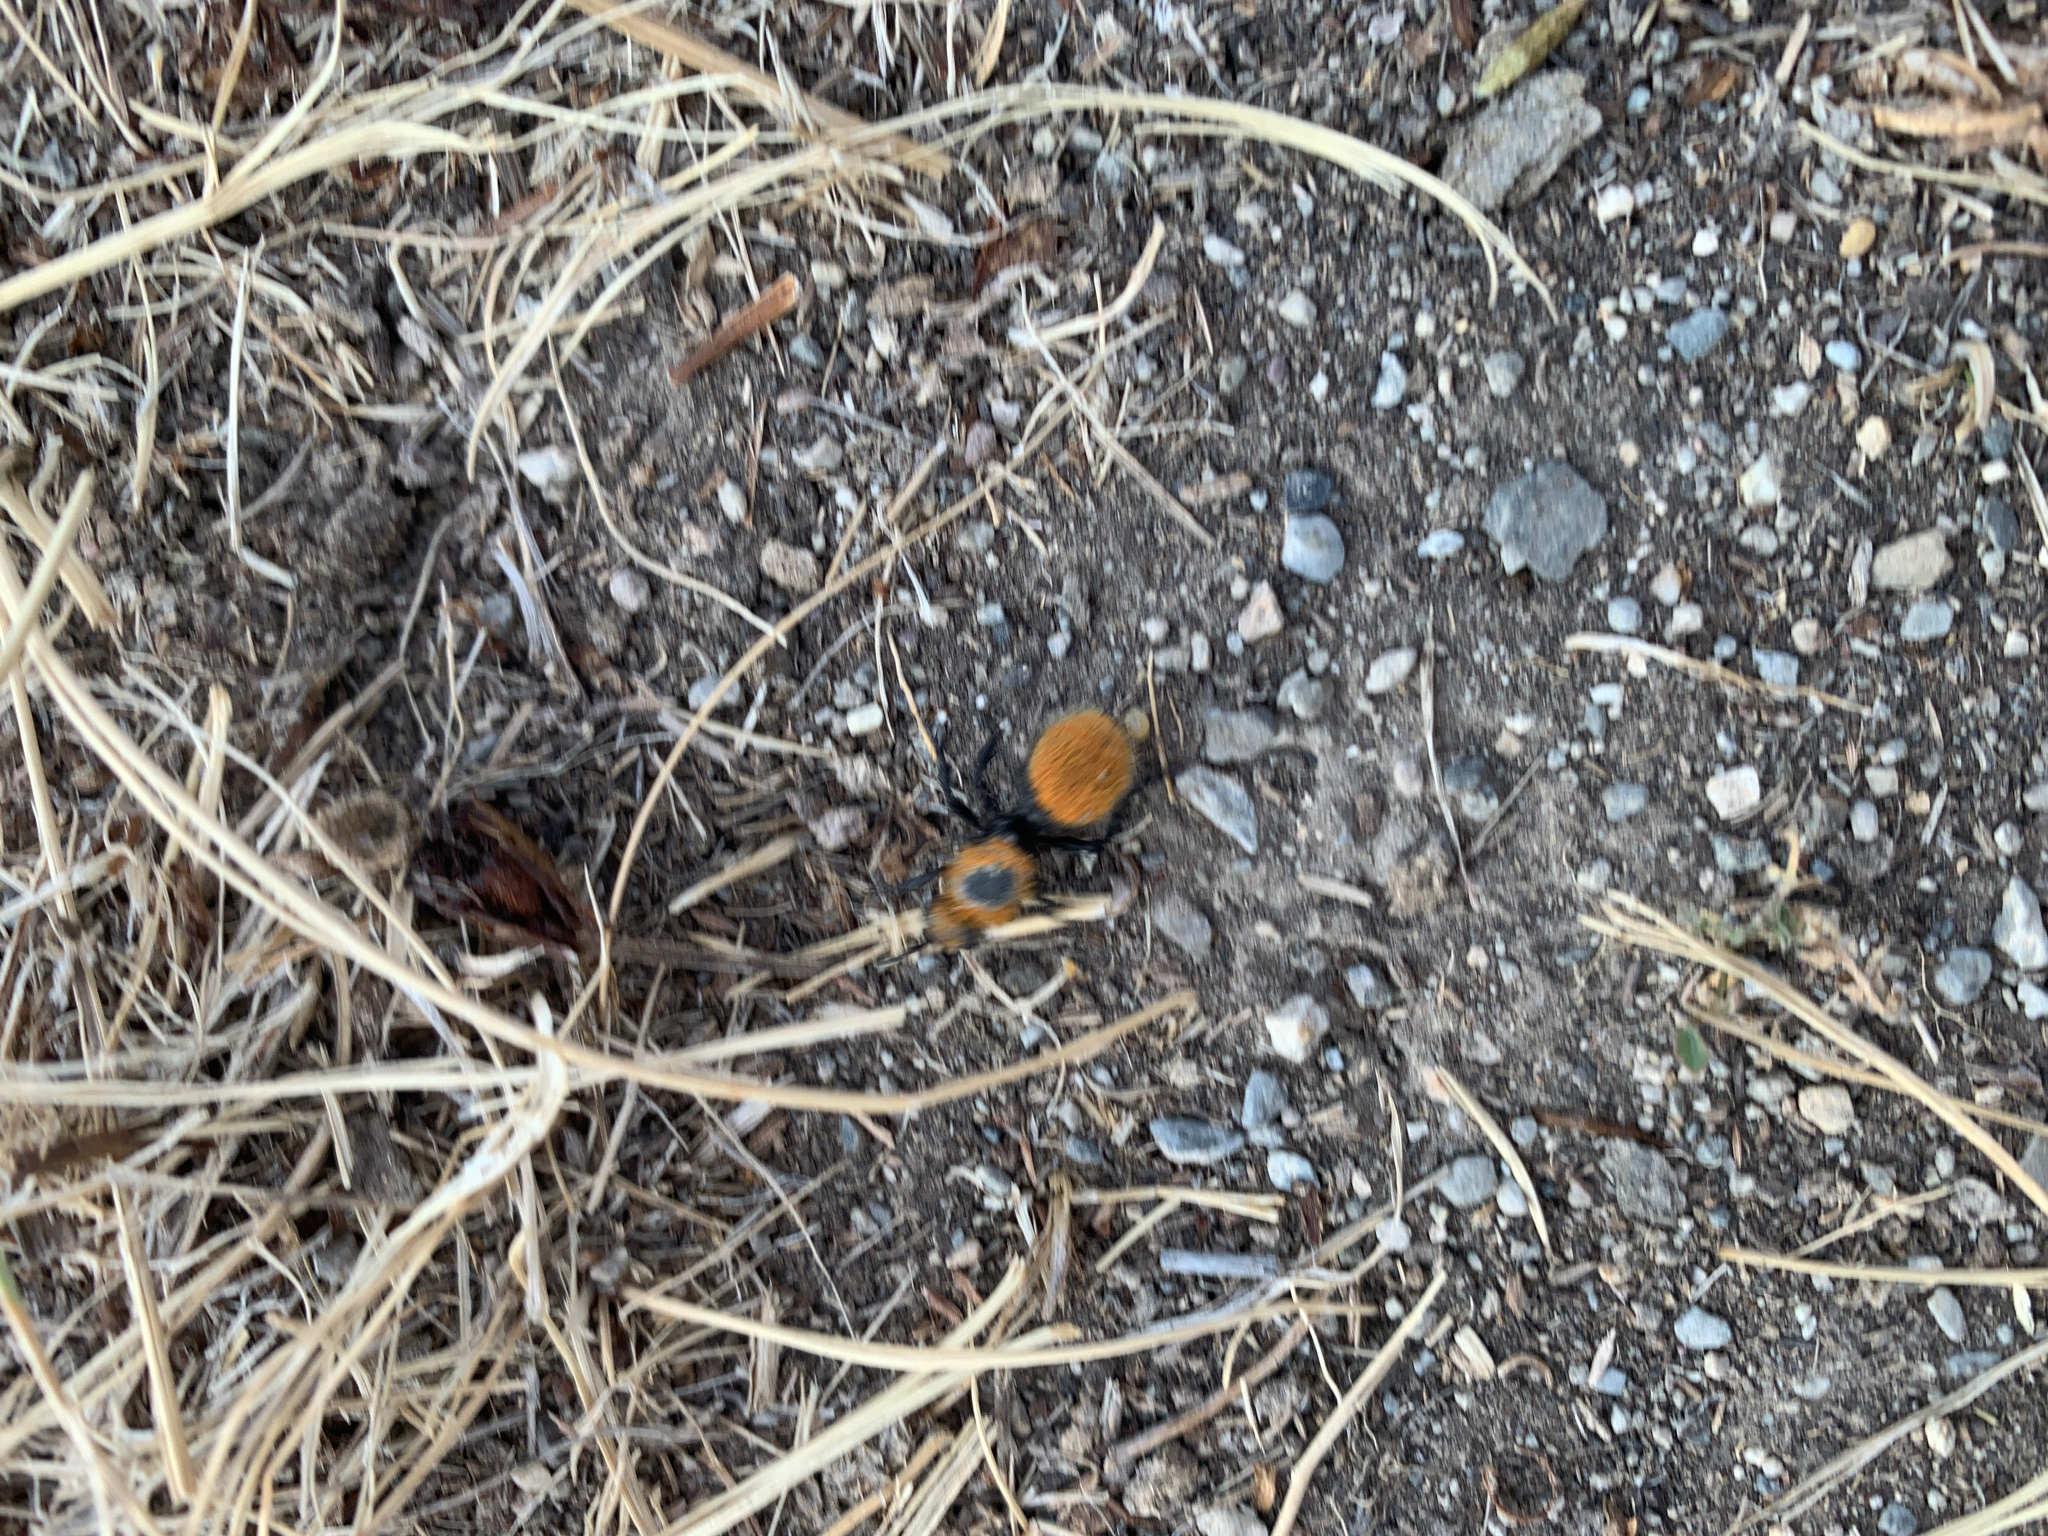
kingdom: Animalia
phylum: Arthropoda
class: Insecta
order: Hymenoptera
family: Mutillidae
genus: Dasymutilla
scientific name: Dasymutilla vestita
